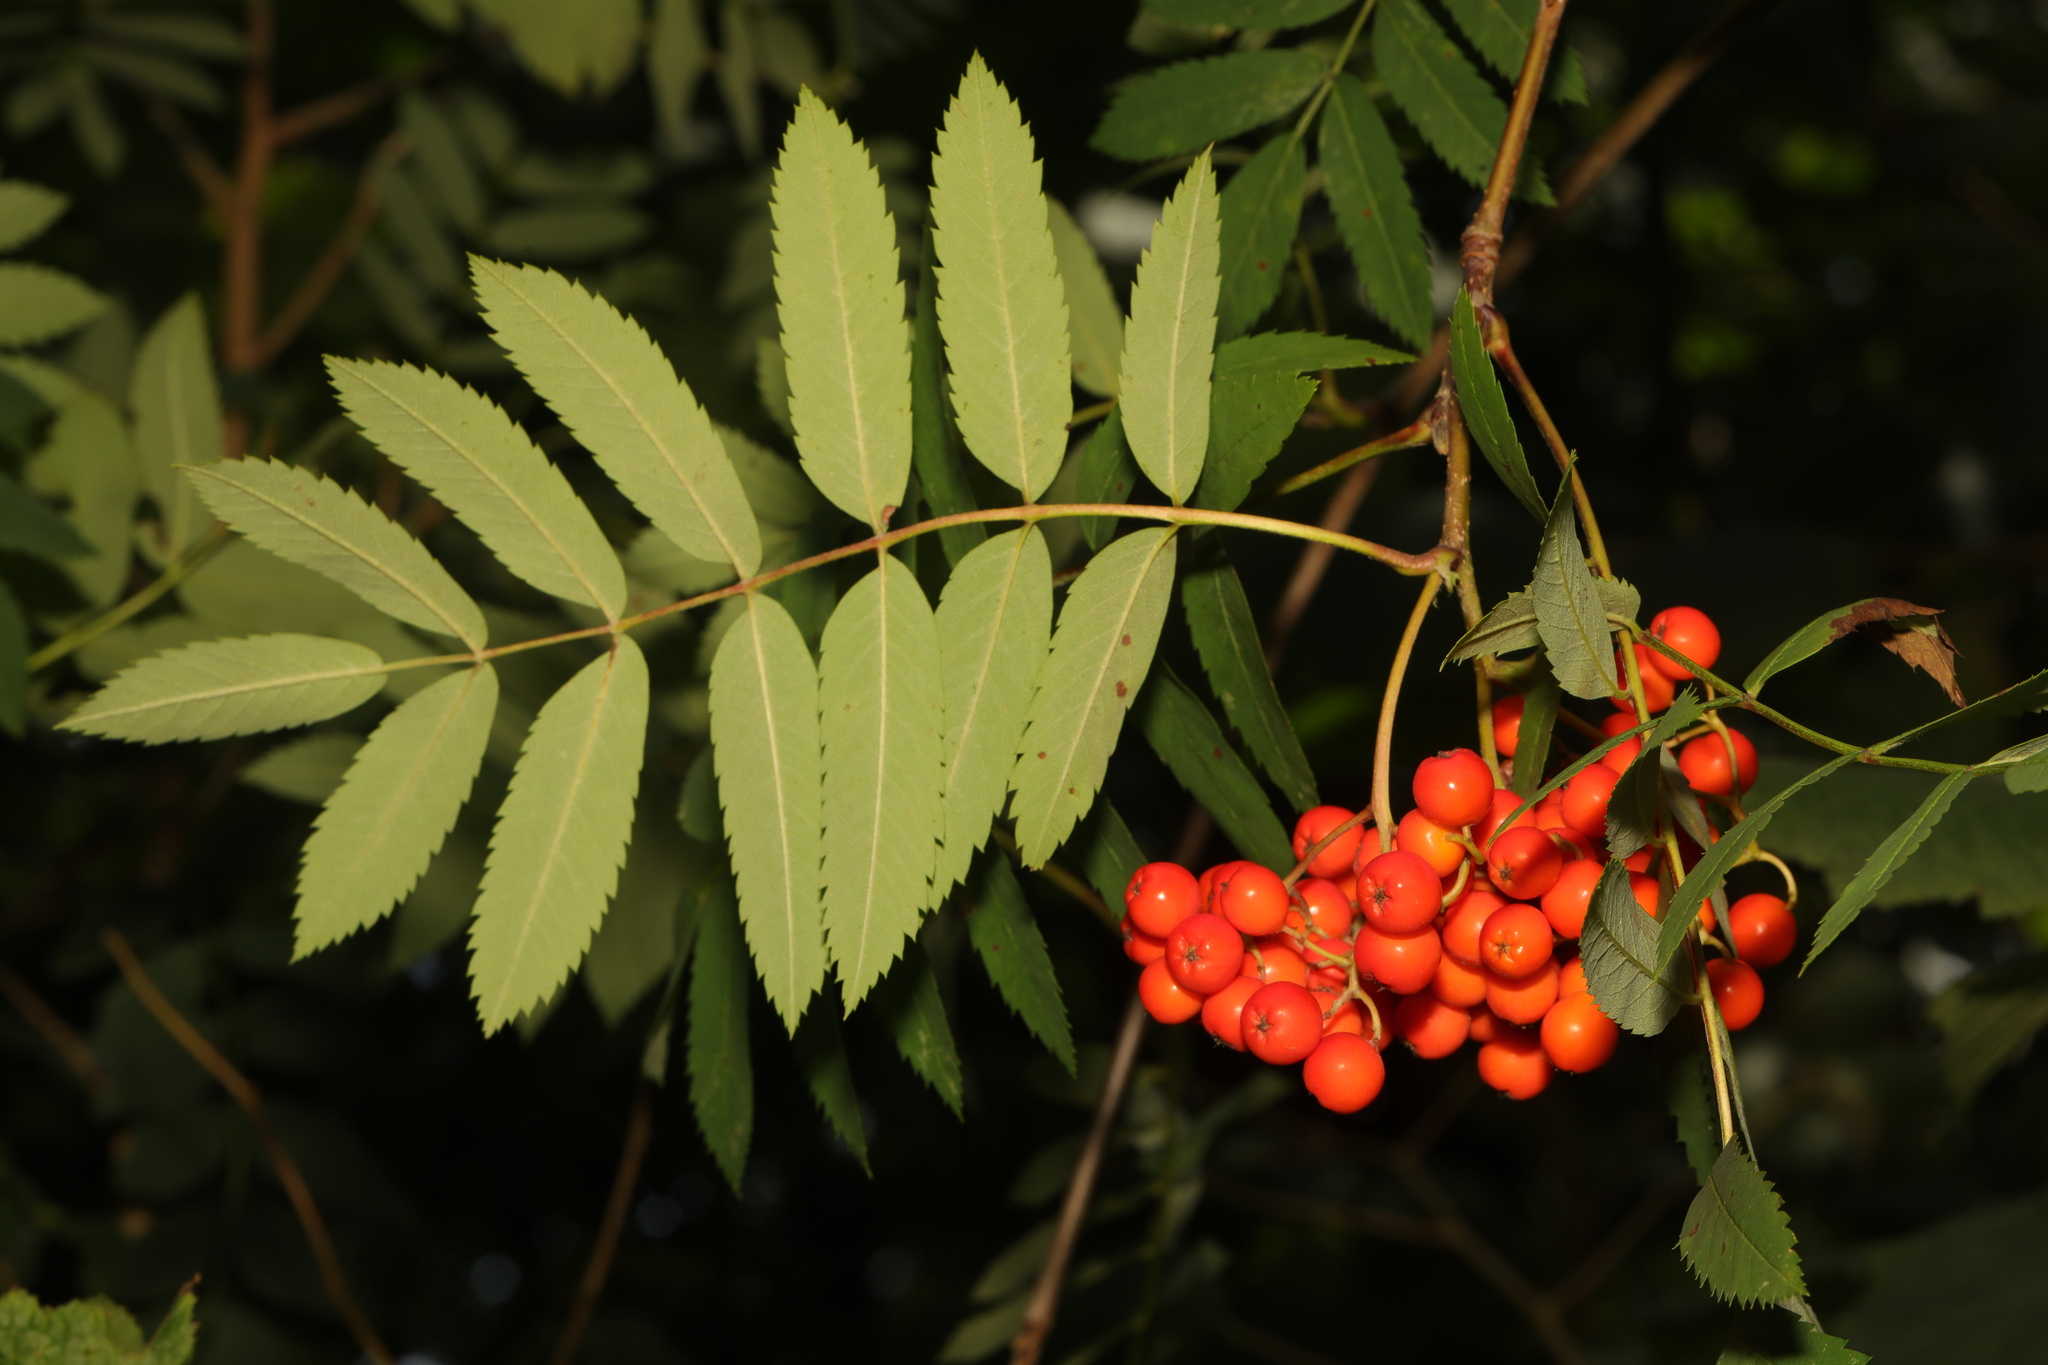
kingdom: Plantae
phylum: Tracheophyta
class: Magnoliopsida
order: Rosales
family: Rosaceae
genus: Sorbus
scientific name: Sorbus aucuparia
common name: Rowan
